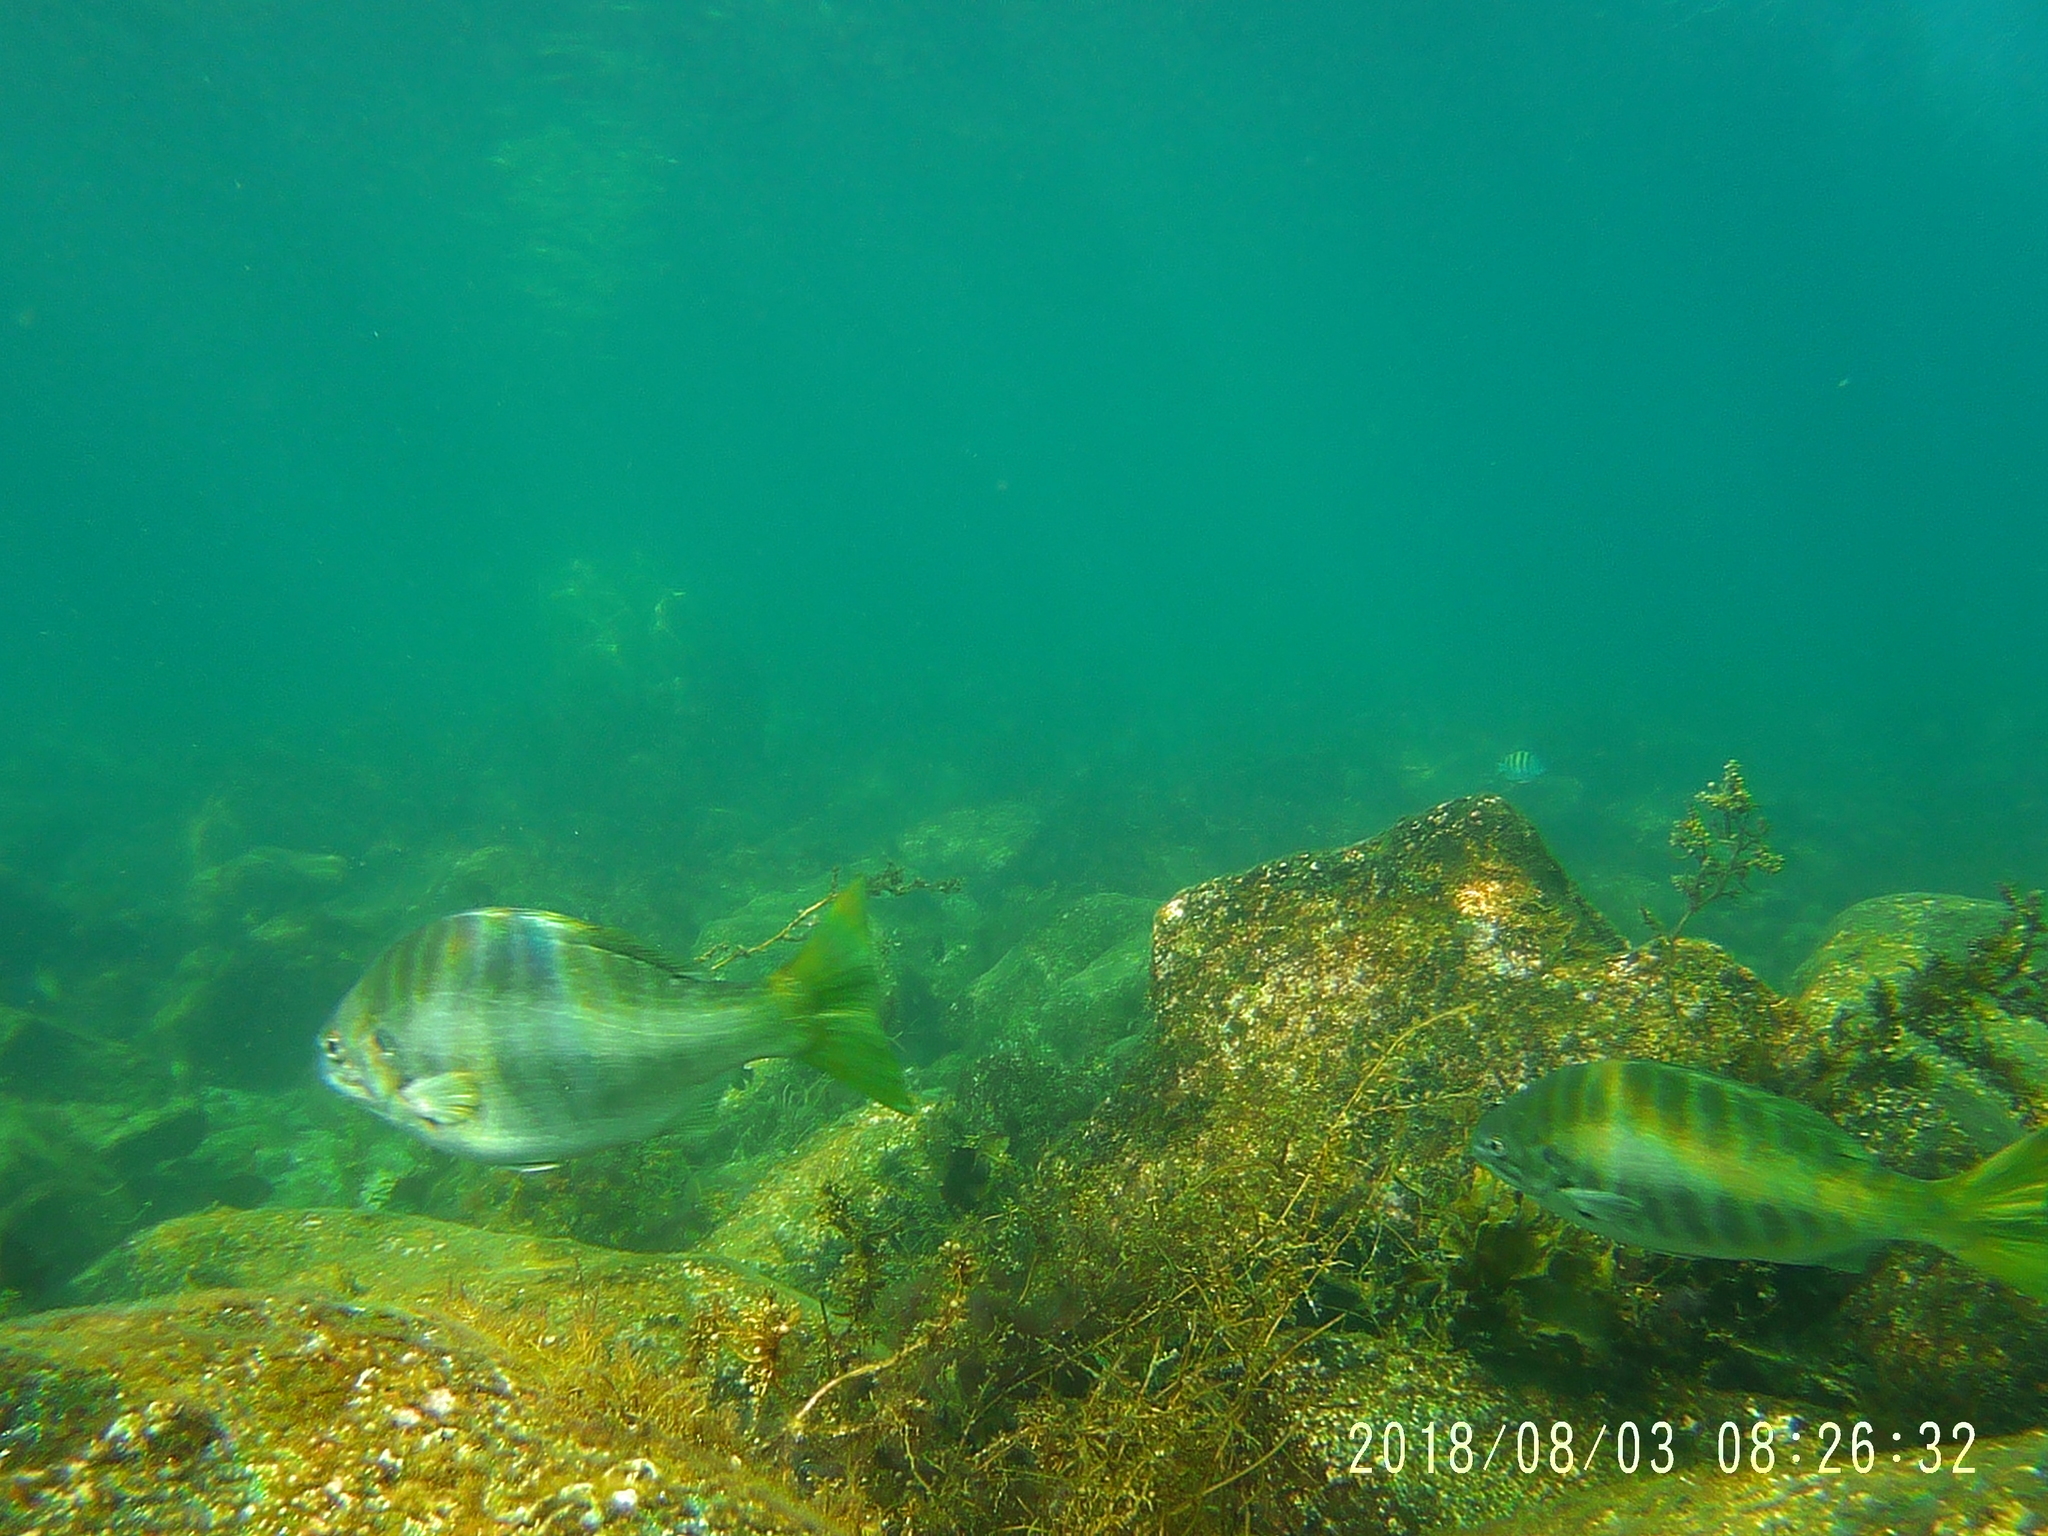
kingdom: Animalia
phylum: Chordata
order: Perciformes
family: Kyphosidae
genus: Kyphosus
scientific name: Kyphosus azureus
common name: Perch
